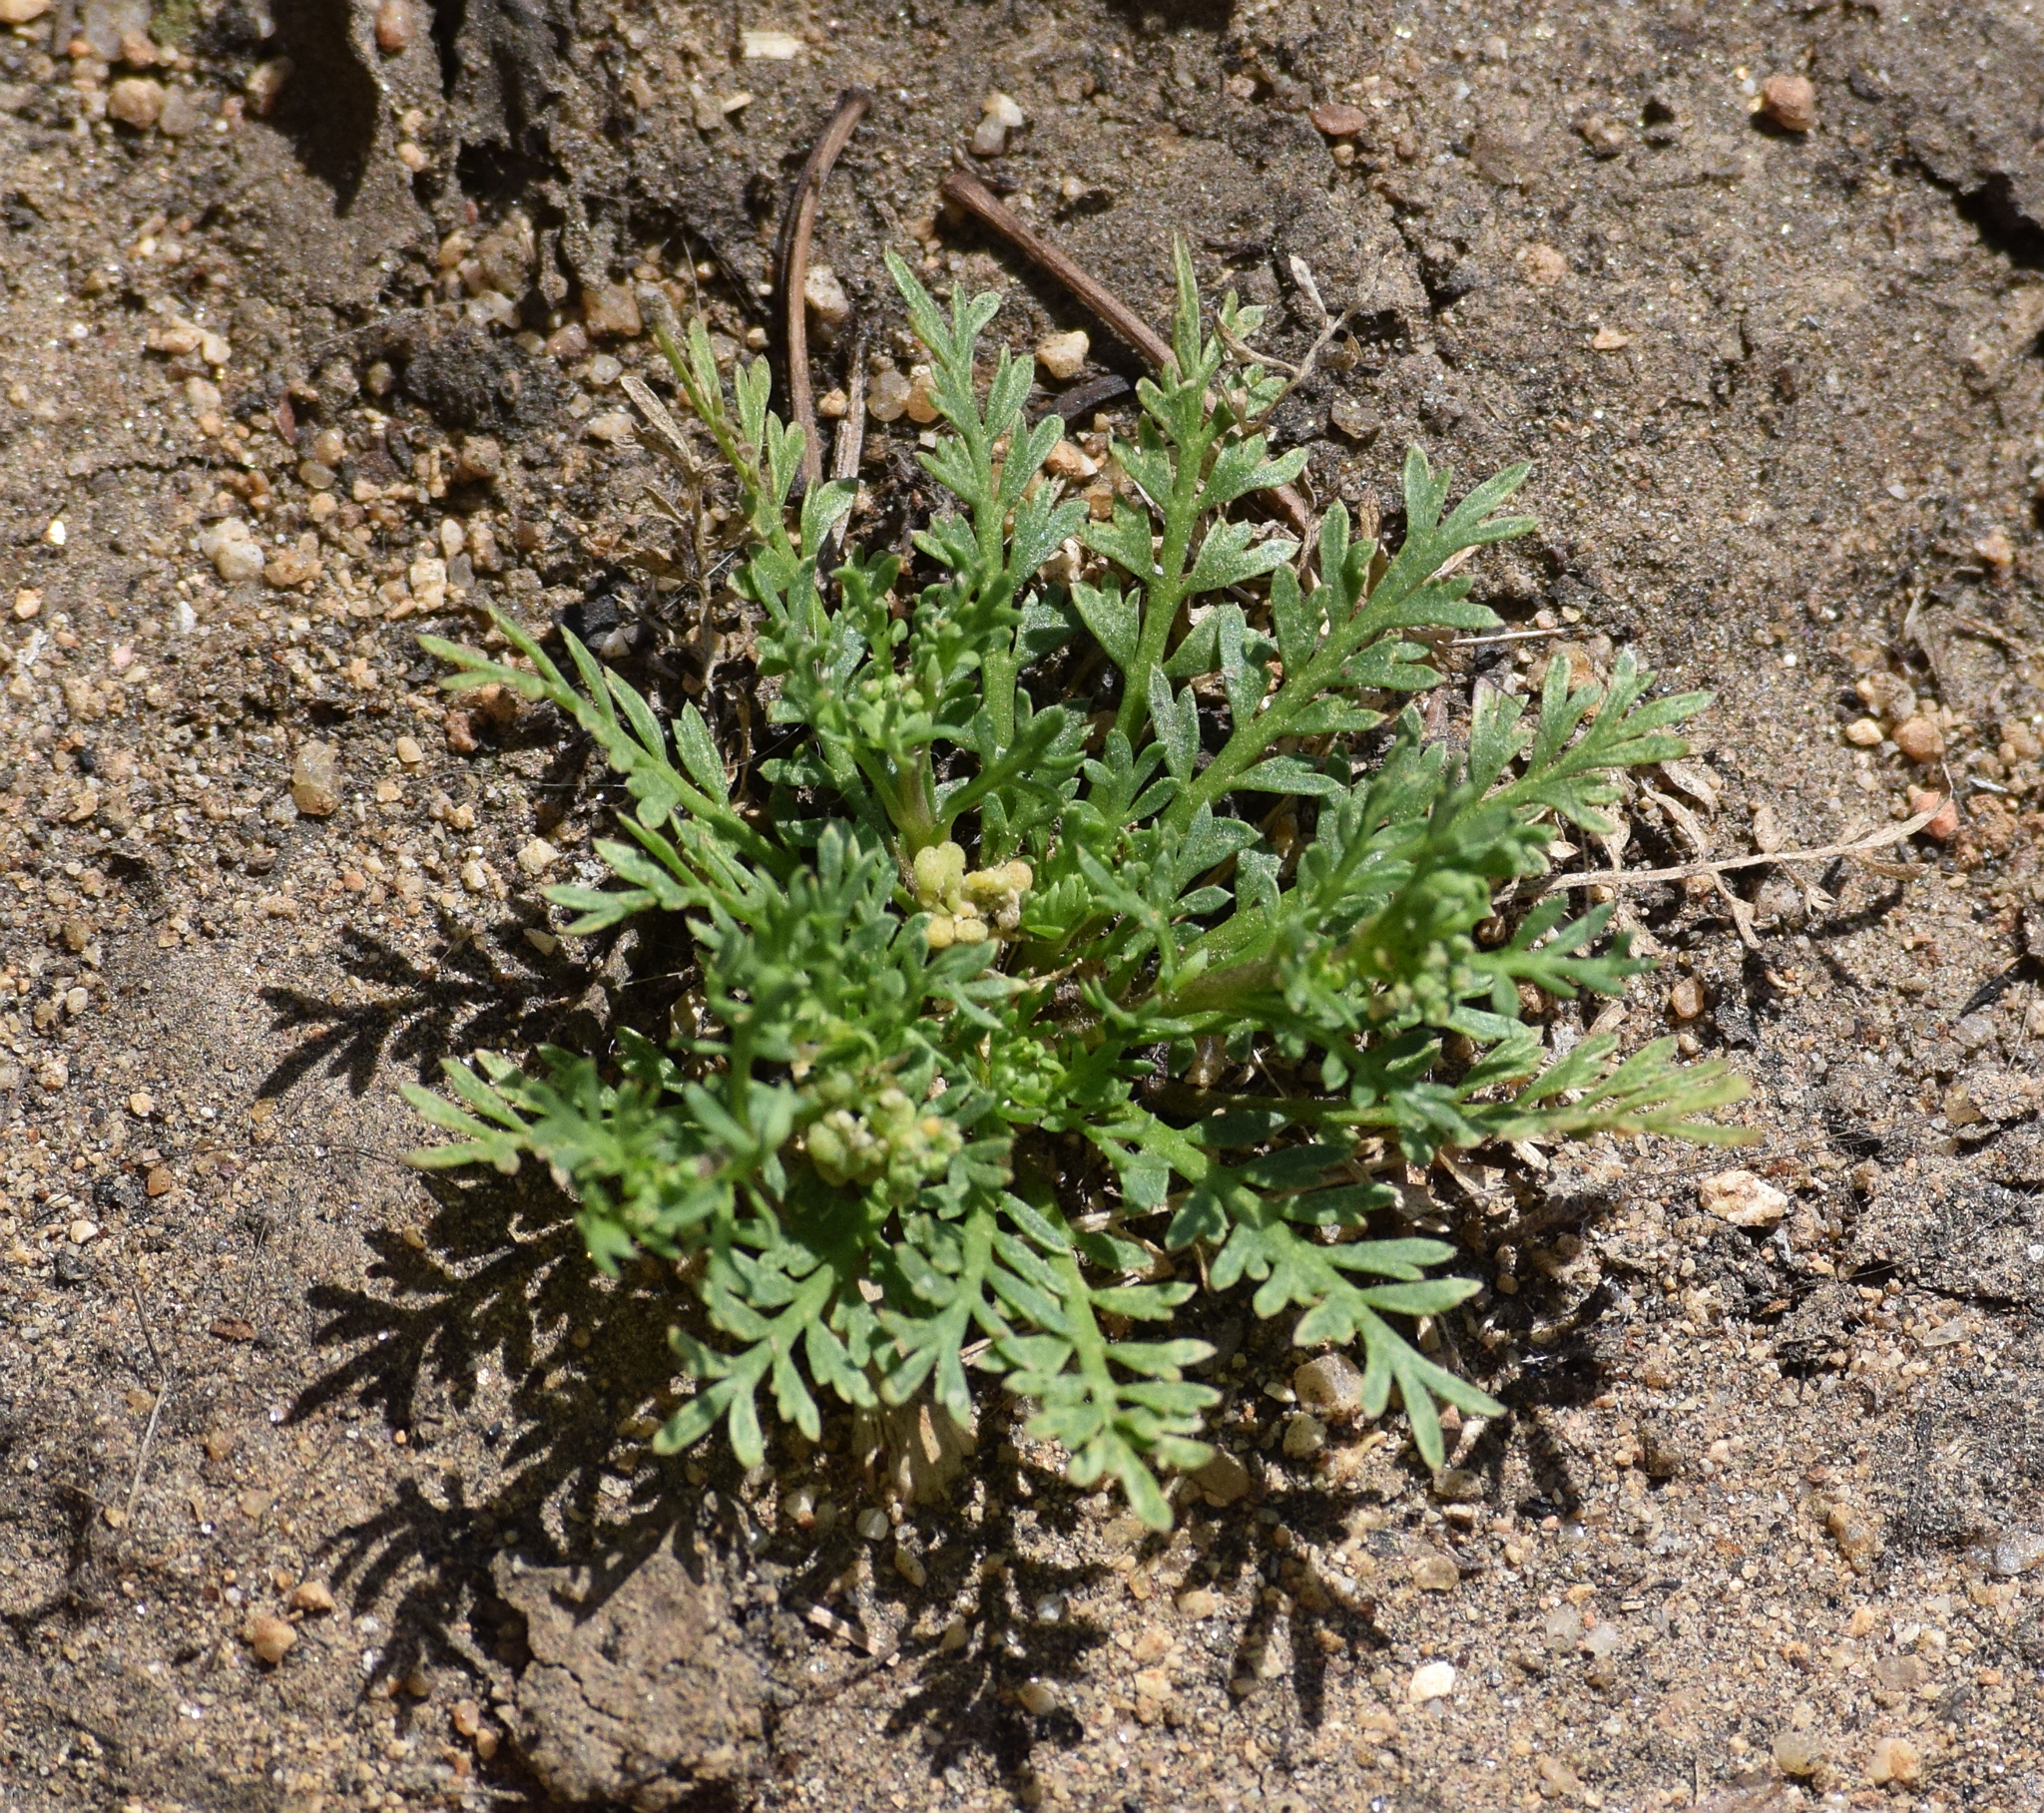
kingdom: Plantae
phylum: Tracheophyta
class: Magnoliopsida
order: Brassicales
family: Brassicaceae
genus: Lepidium
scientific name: Lepidium didymum
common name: Lesser swinecress
